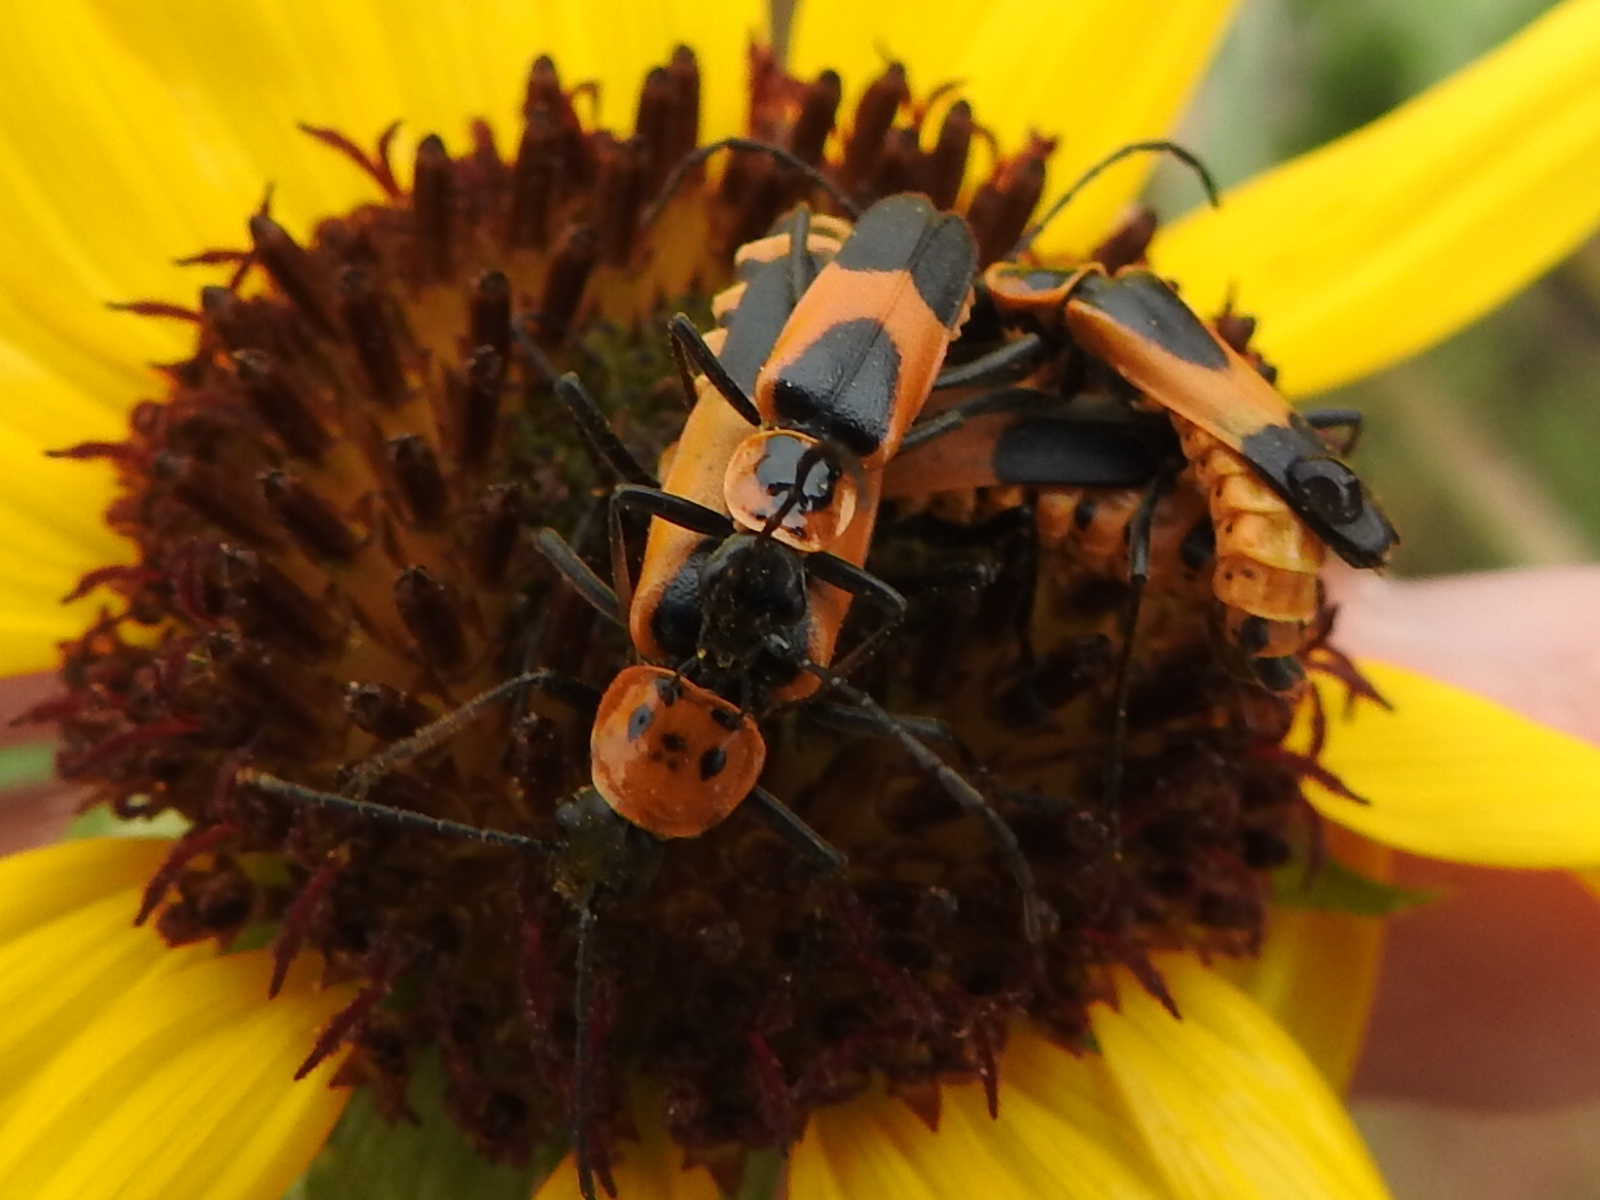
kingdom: Animalia
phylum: Arthropoda
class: Insecta
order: Coleoptera
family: Cantharidae
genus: Chauliognathus
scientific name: Chauliognathus basalis
